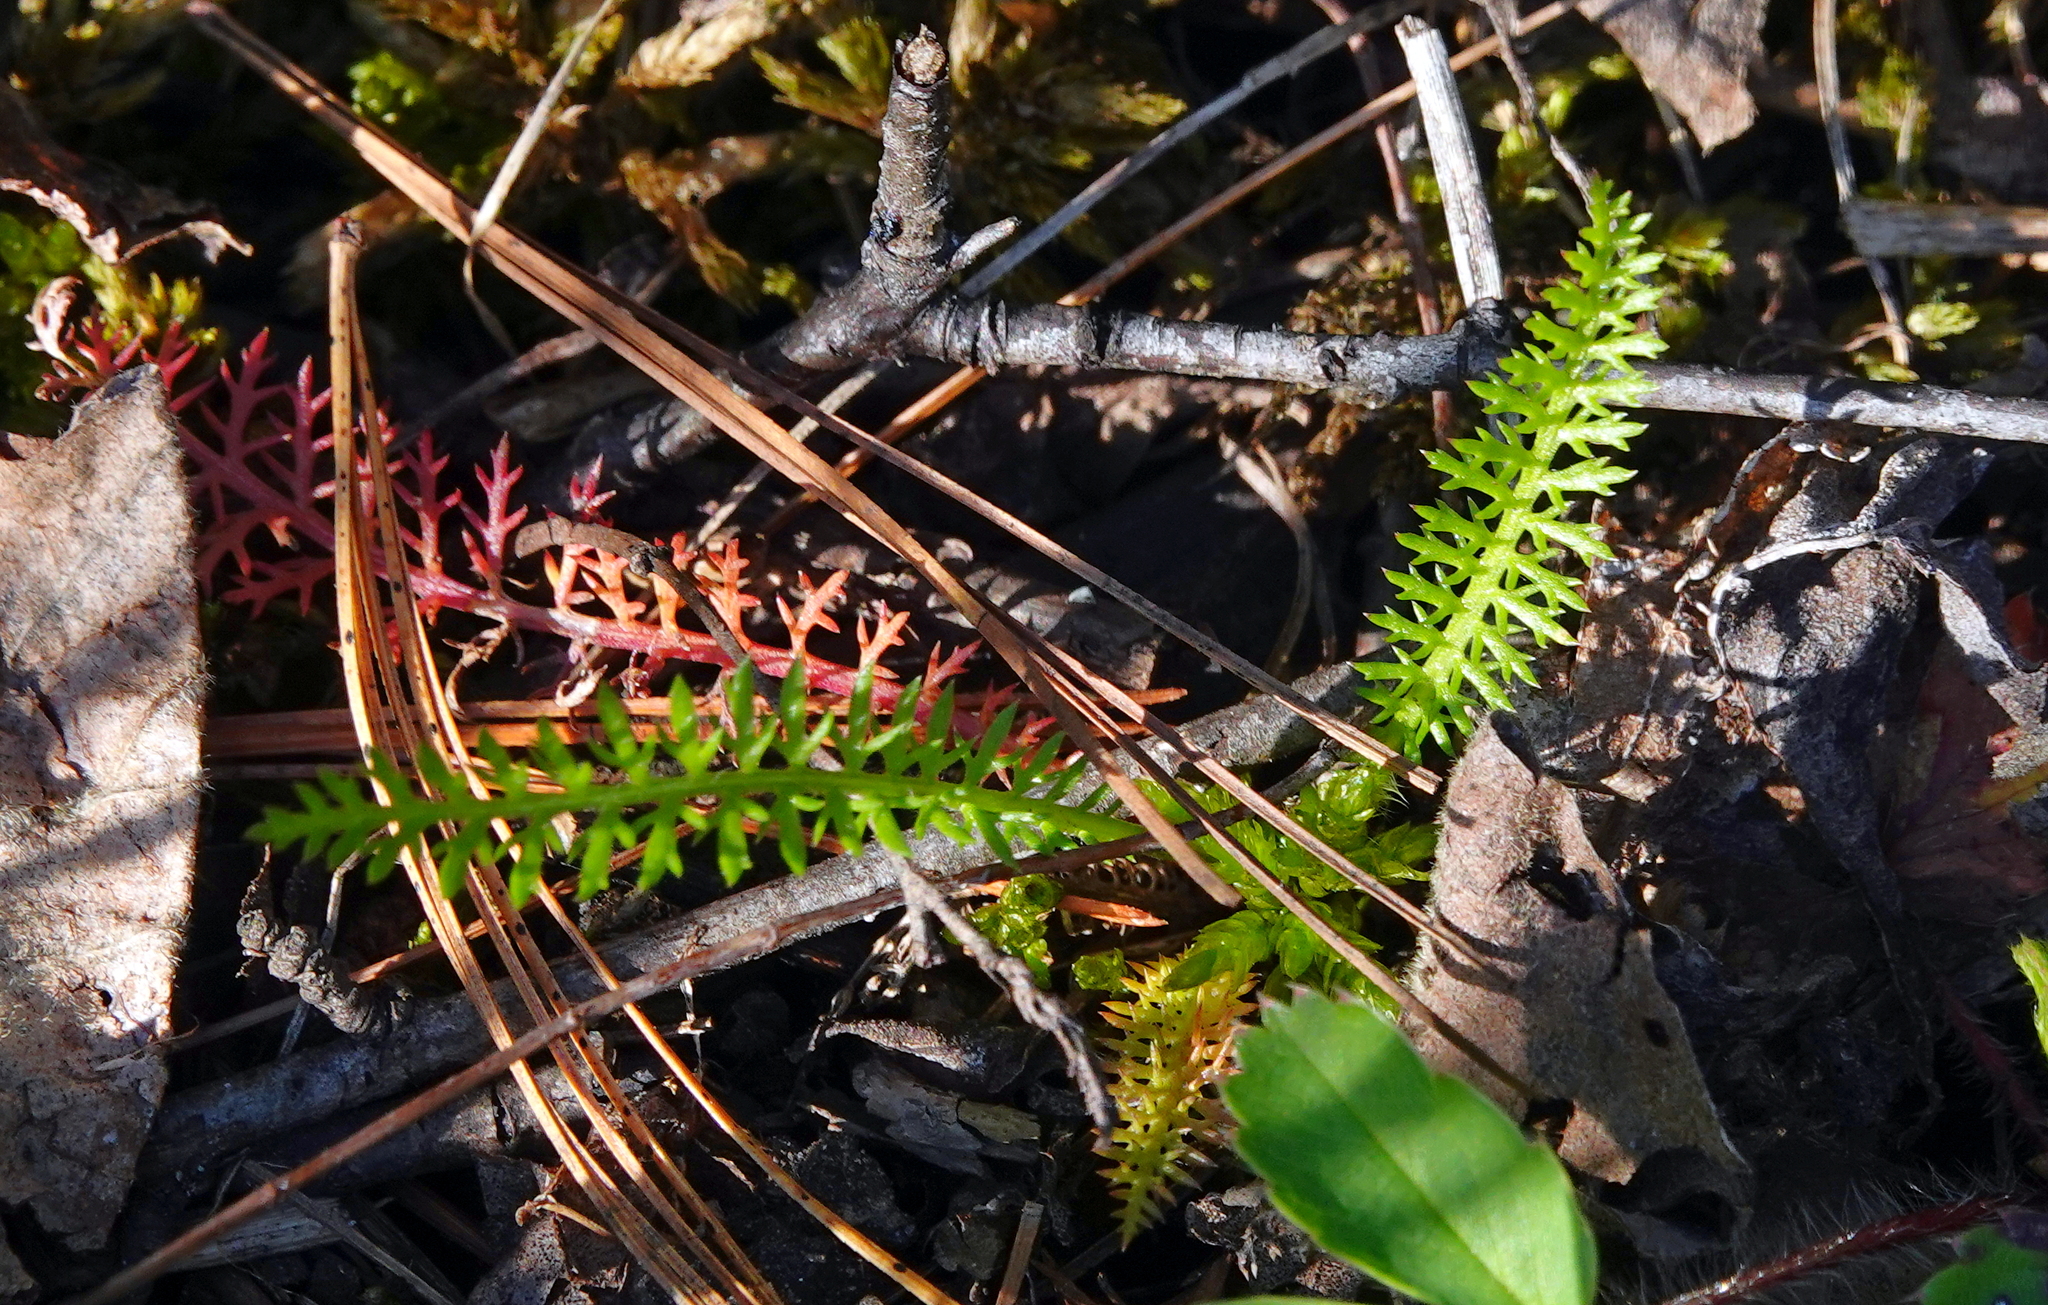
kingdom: Plantae
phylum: Tracheophyta
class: Magnoliopsida
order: Asterales
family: Asteraceae
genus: Achillea
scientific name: Achillea millefolium
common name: Yarrow
